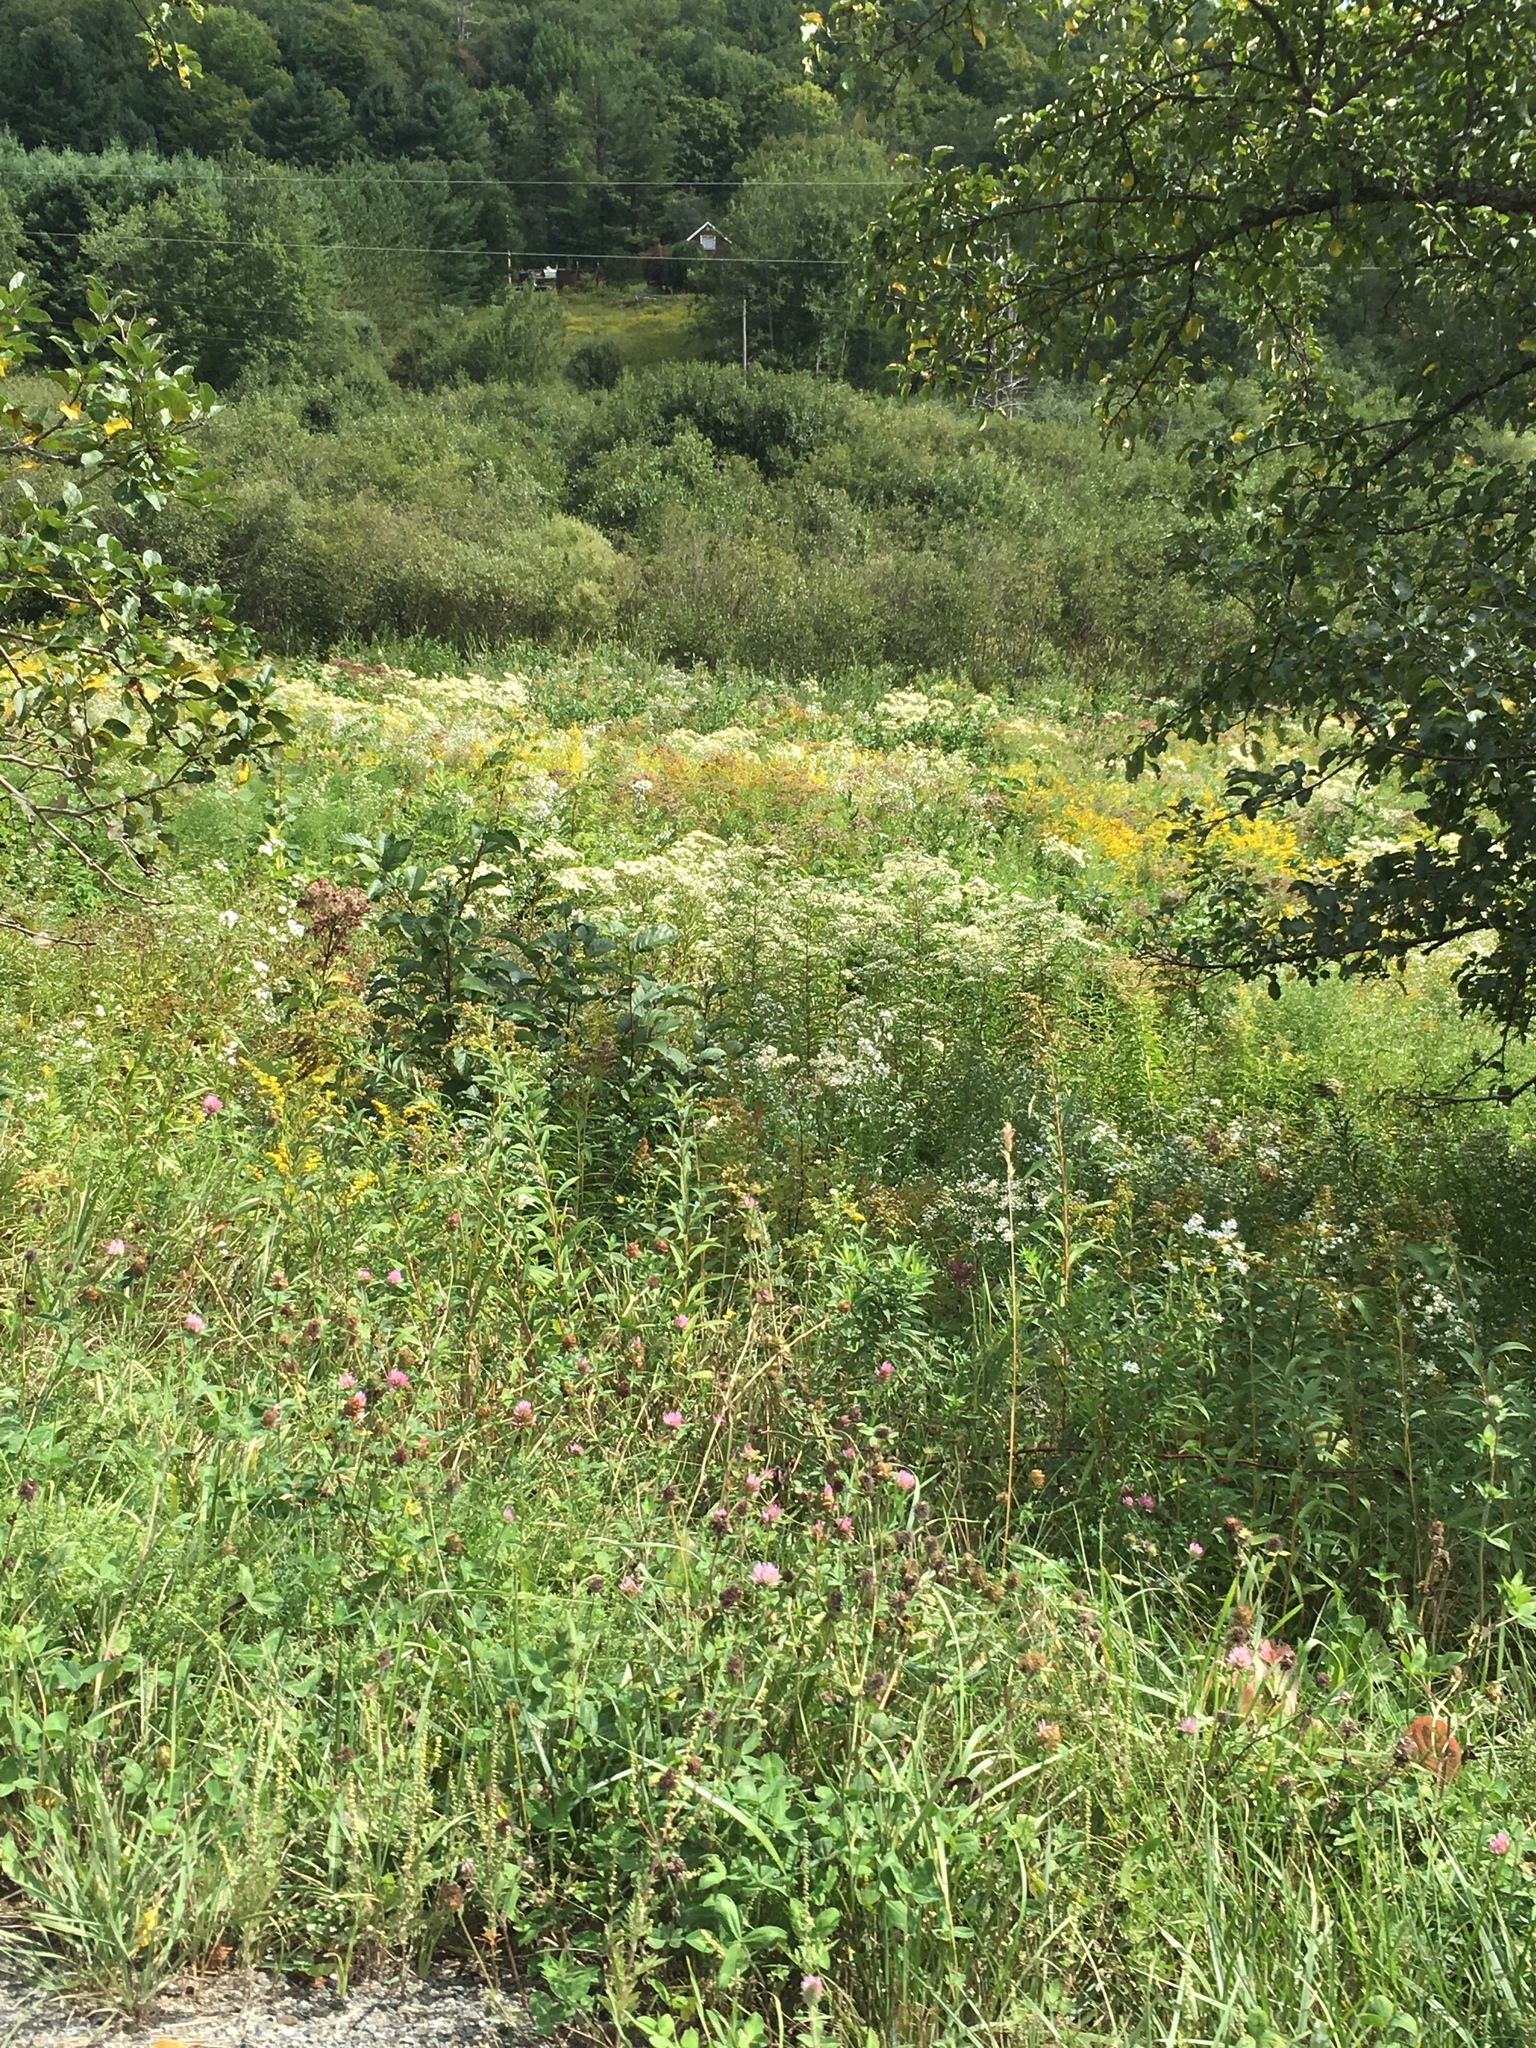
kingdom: Plantae
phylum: Tracheophyta
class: Magnoliopsida
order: Asterales
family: Asteraceae
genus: Doellingeria
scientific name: Doellingeria umbellata
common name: Flat-top white aster
